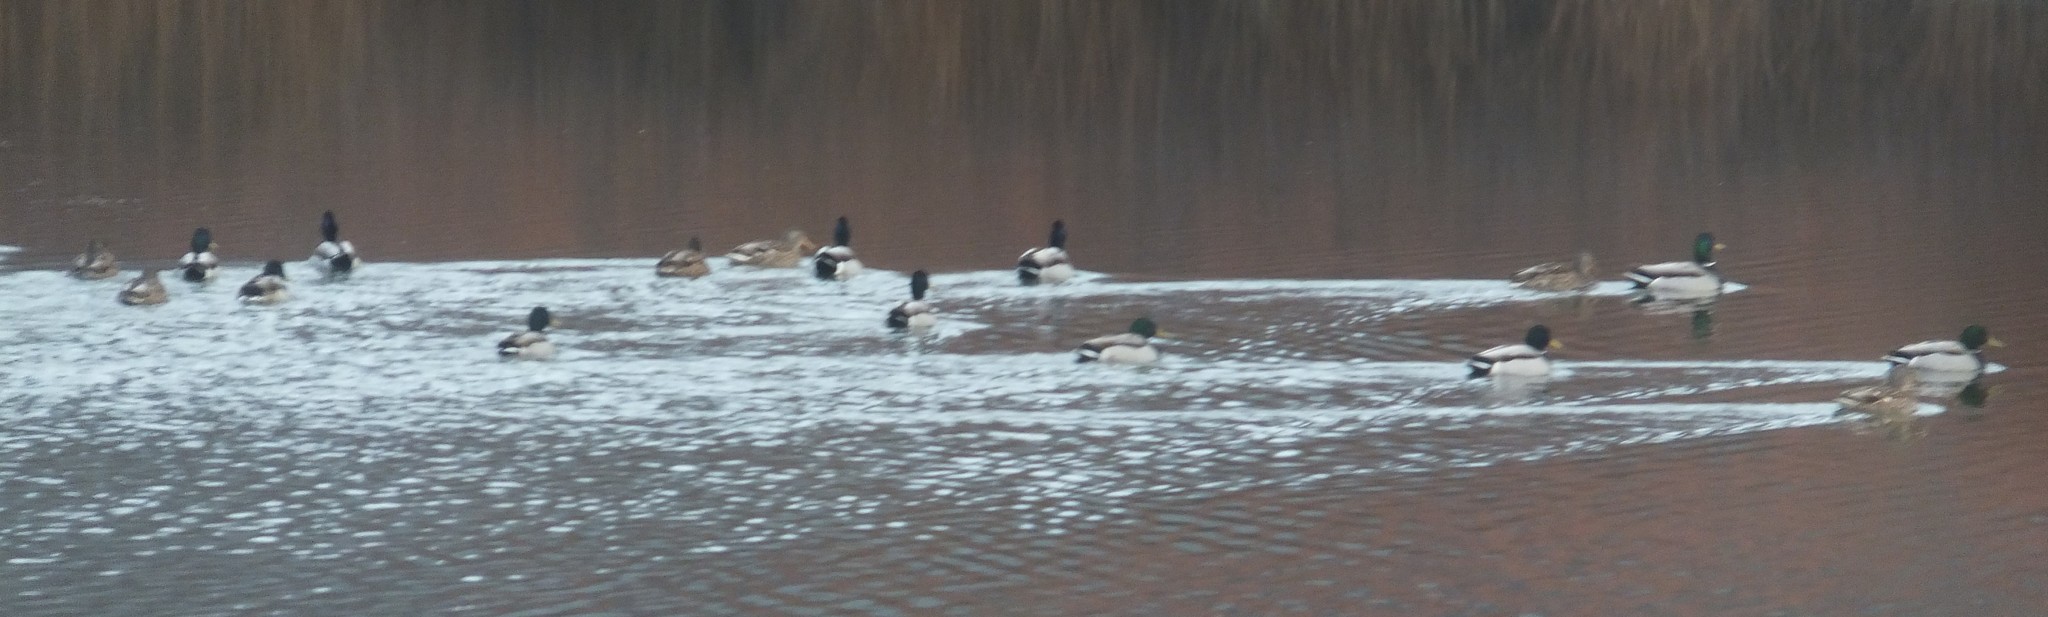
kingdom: Animalia
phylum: Chordata
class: Aves
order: Anseriformes
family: Anatidae
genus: Anas
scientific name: Anas platyrhynchos
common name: Mallard
